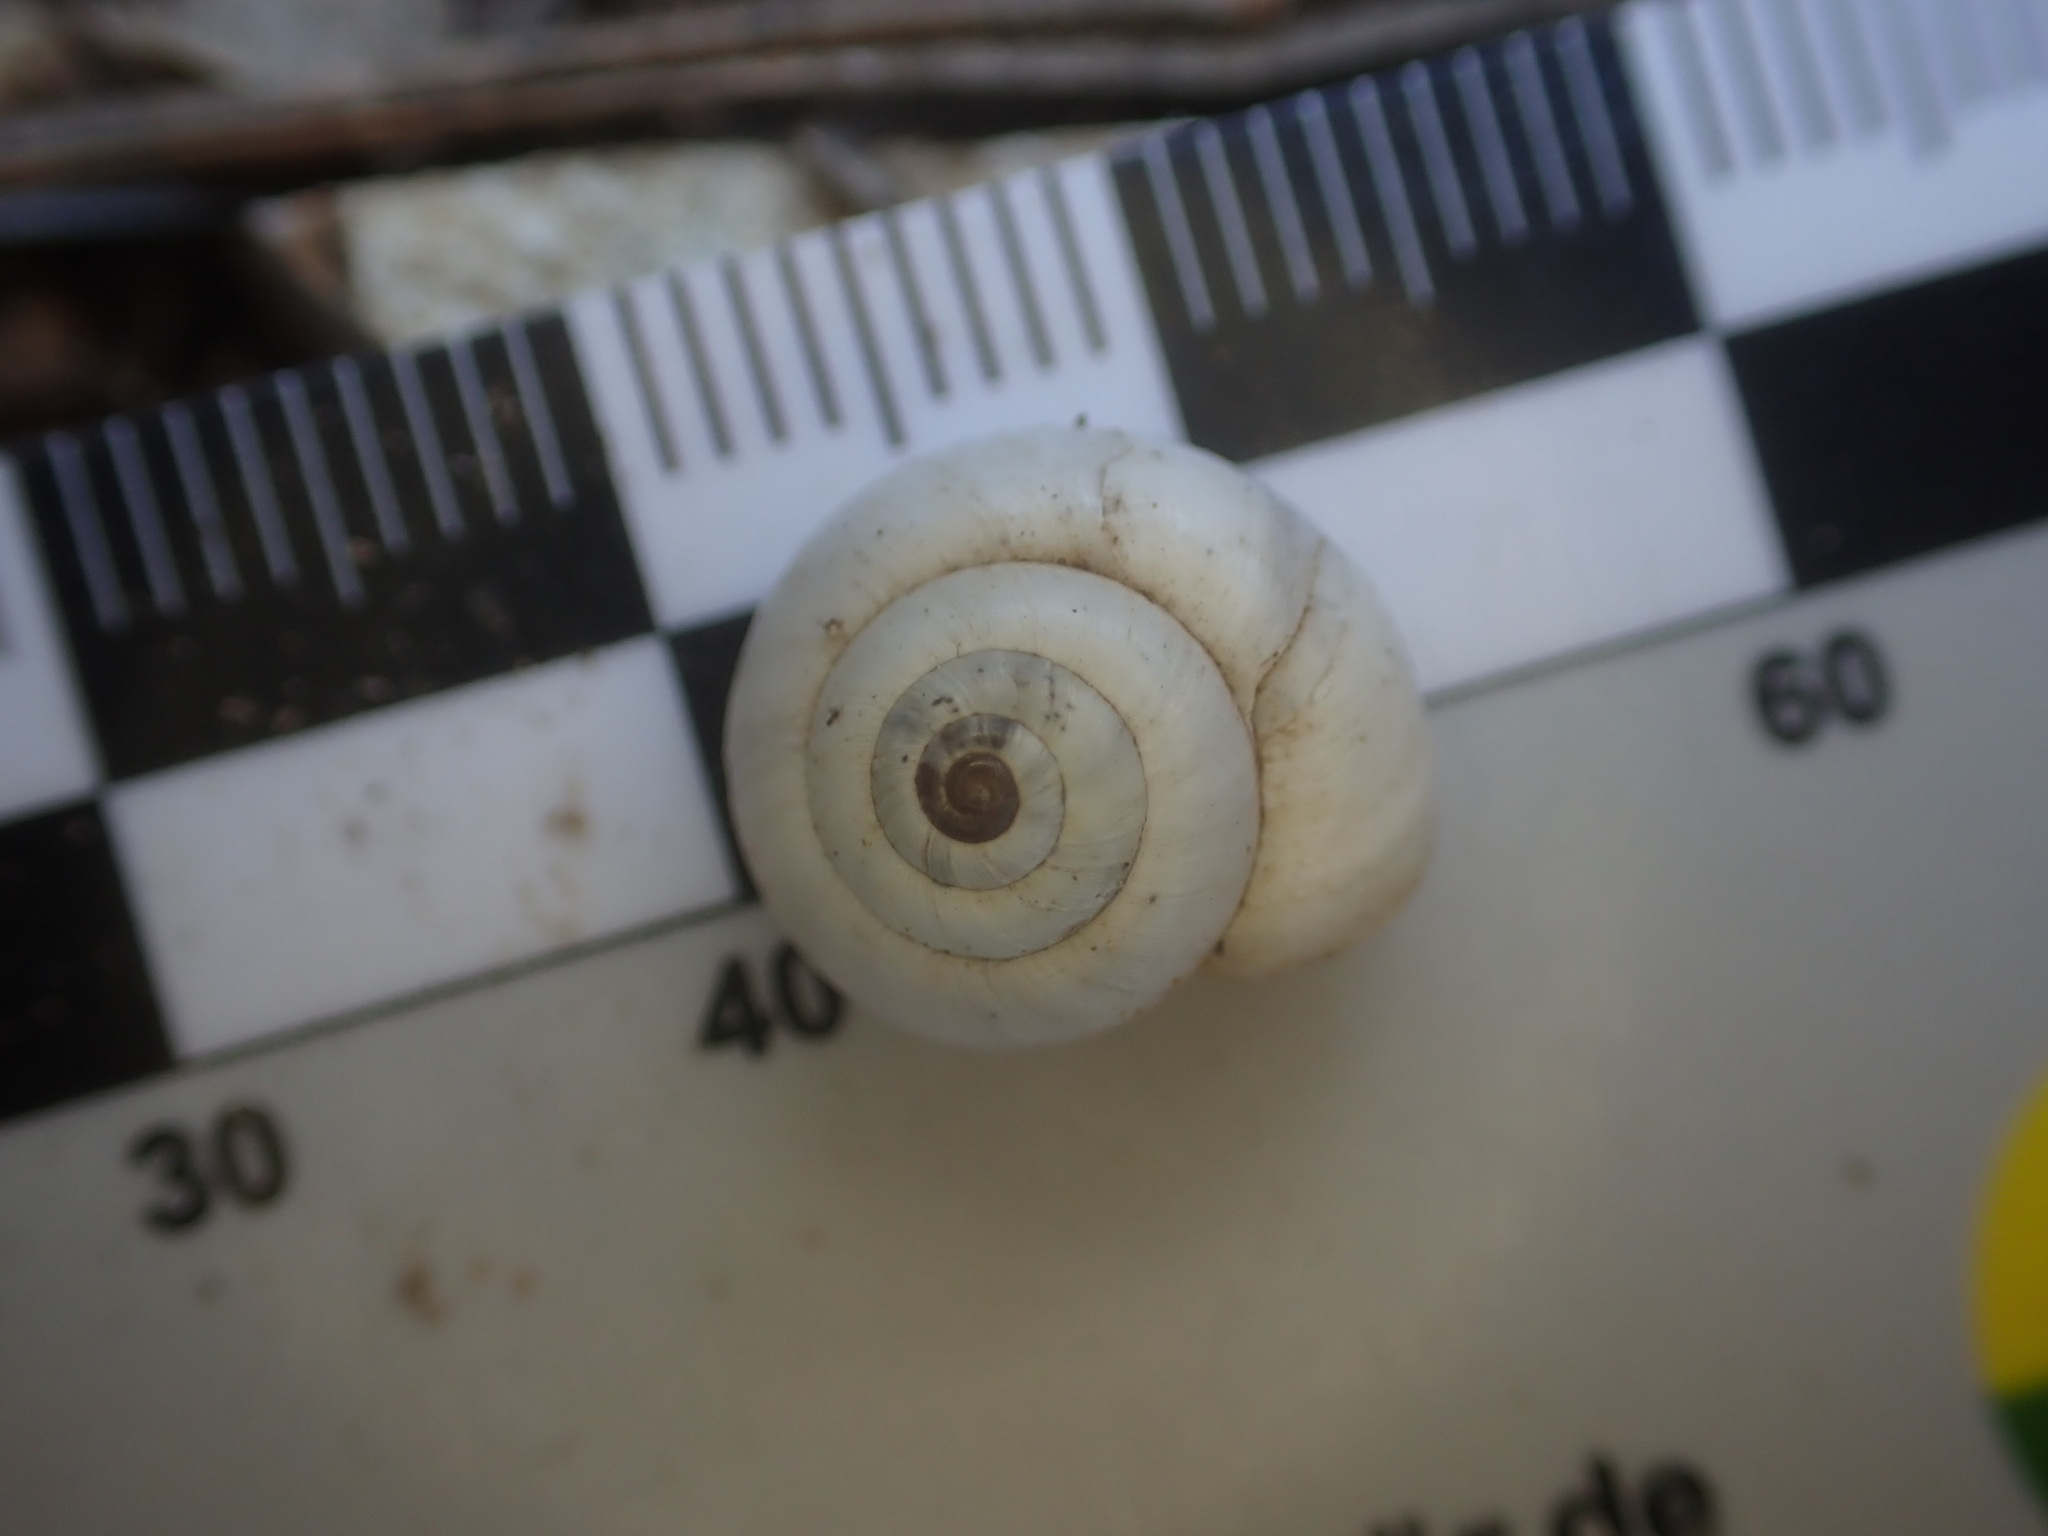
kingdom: Animalia
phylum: Mollusca
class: Gastropoda
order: Stylommatophora
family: Geomitridae
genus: Xeropicta
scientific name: Xeropicta derbentina
